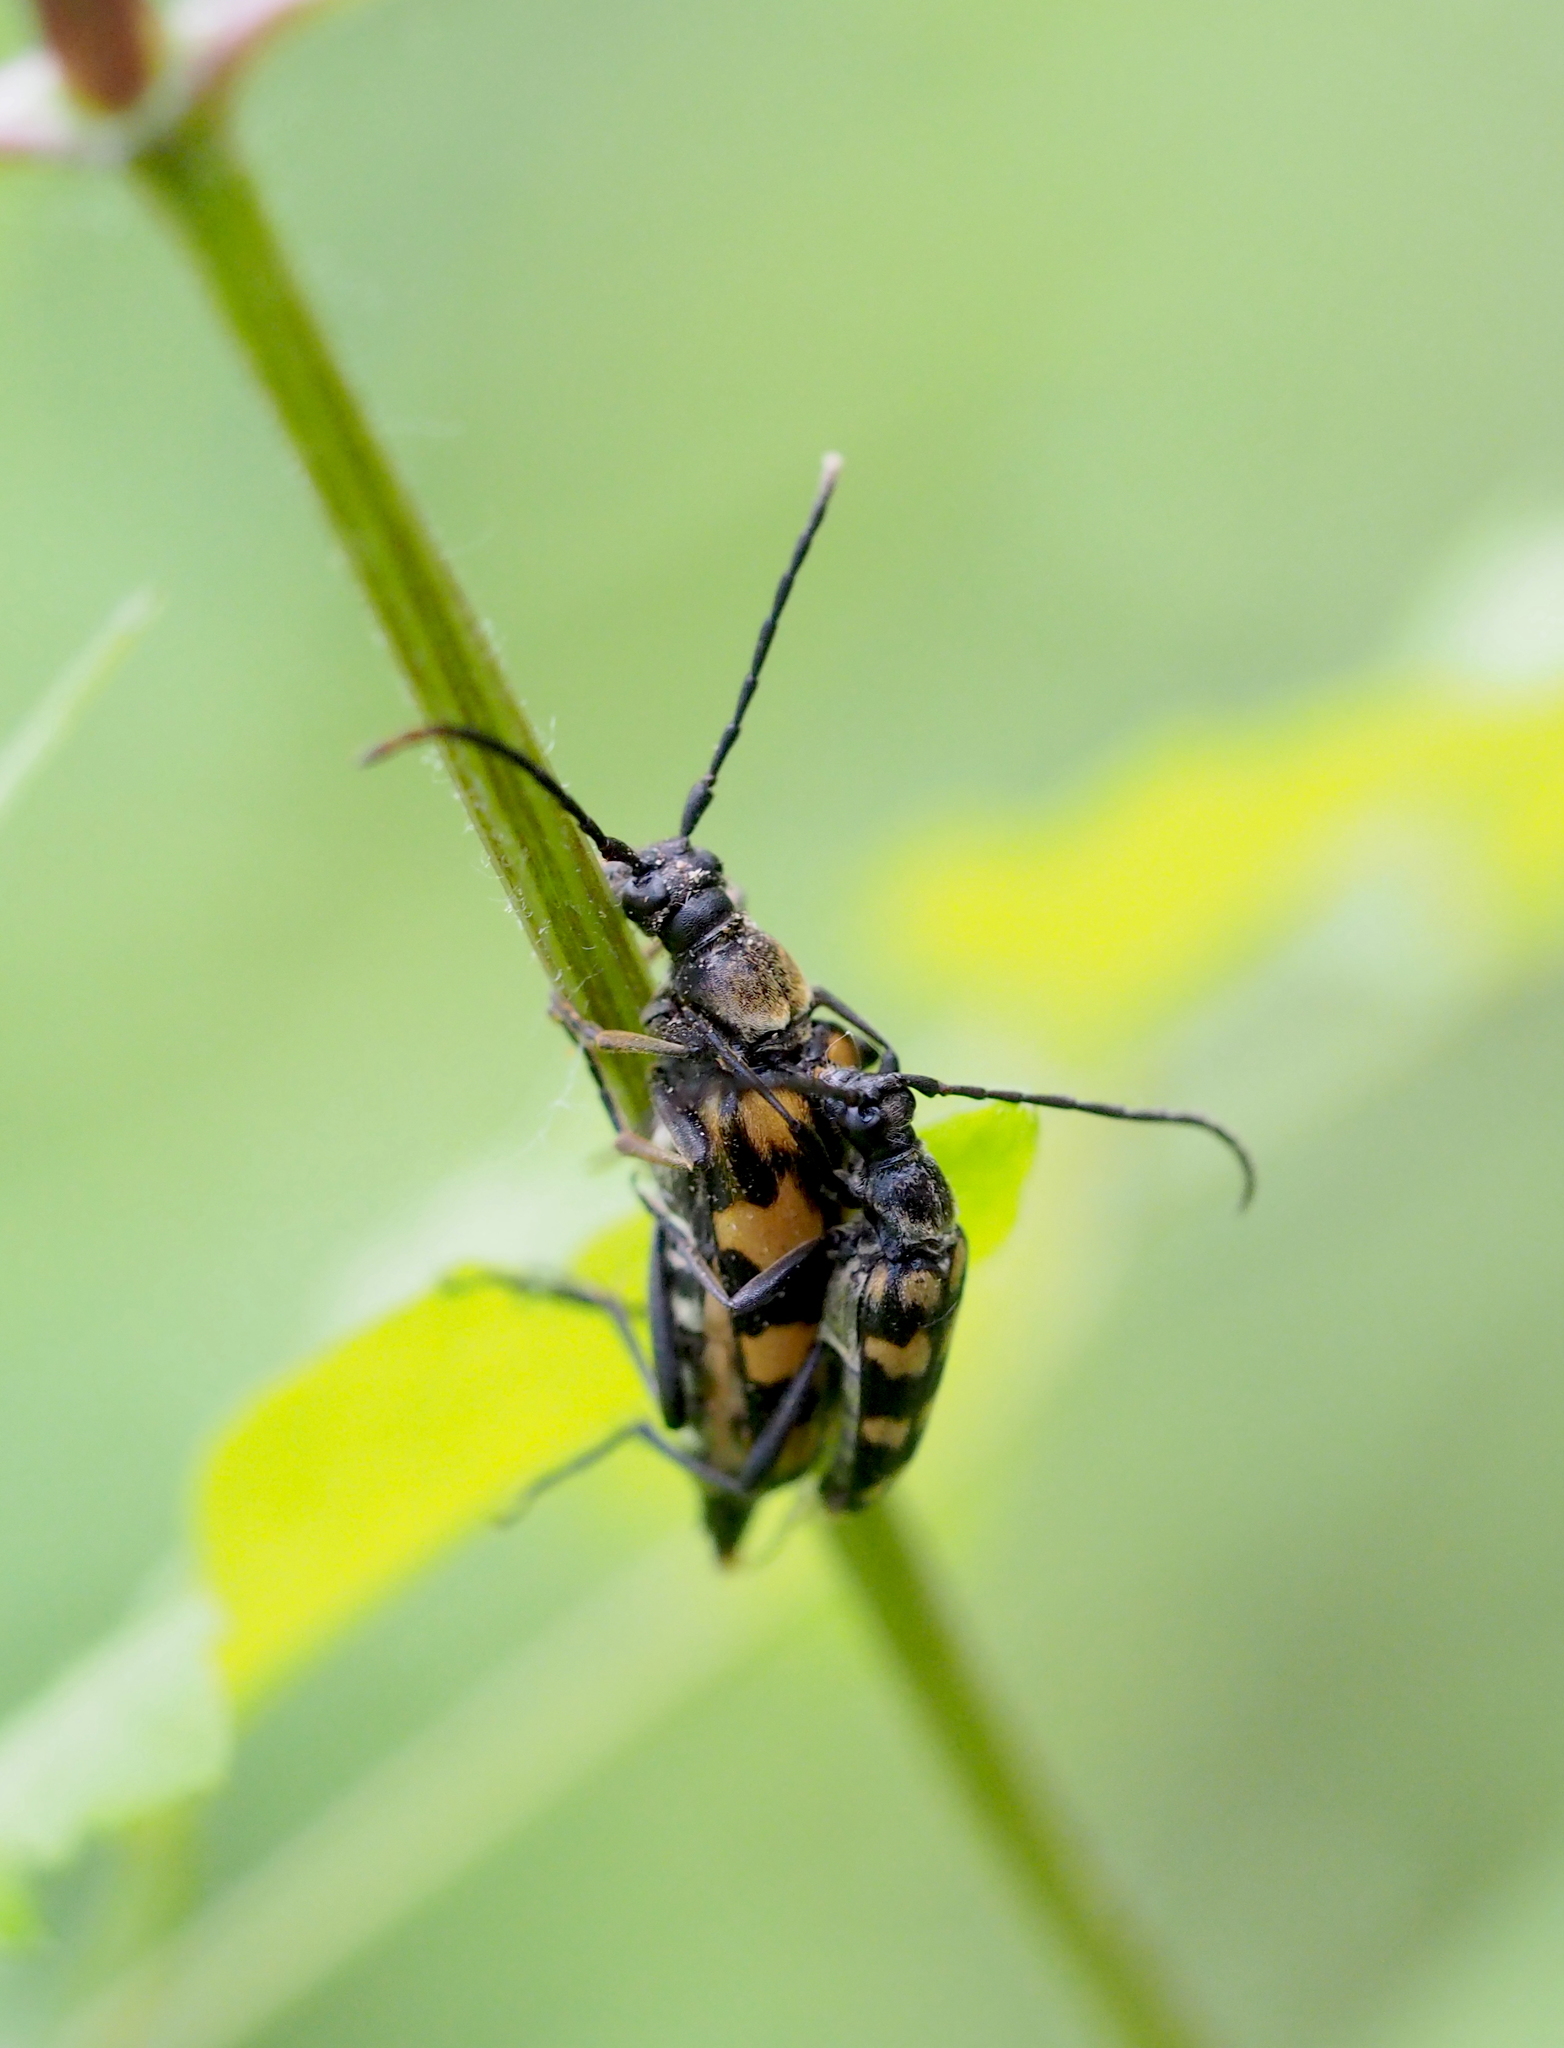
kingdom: Animalia
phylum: Arthropoda
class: Insecta
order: Coleoptera
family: Cerambycidae
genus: Leptura
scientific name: Leptura quadrifasciata
